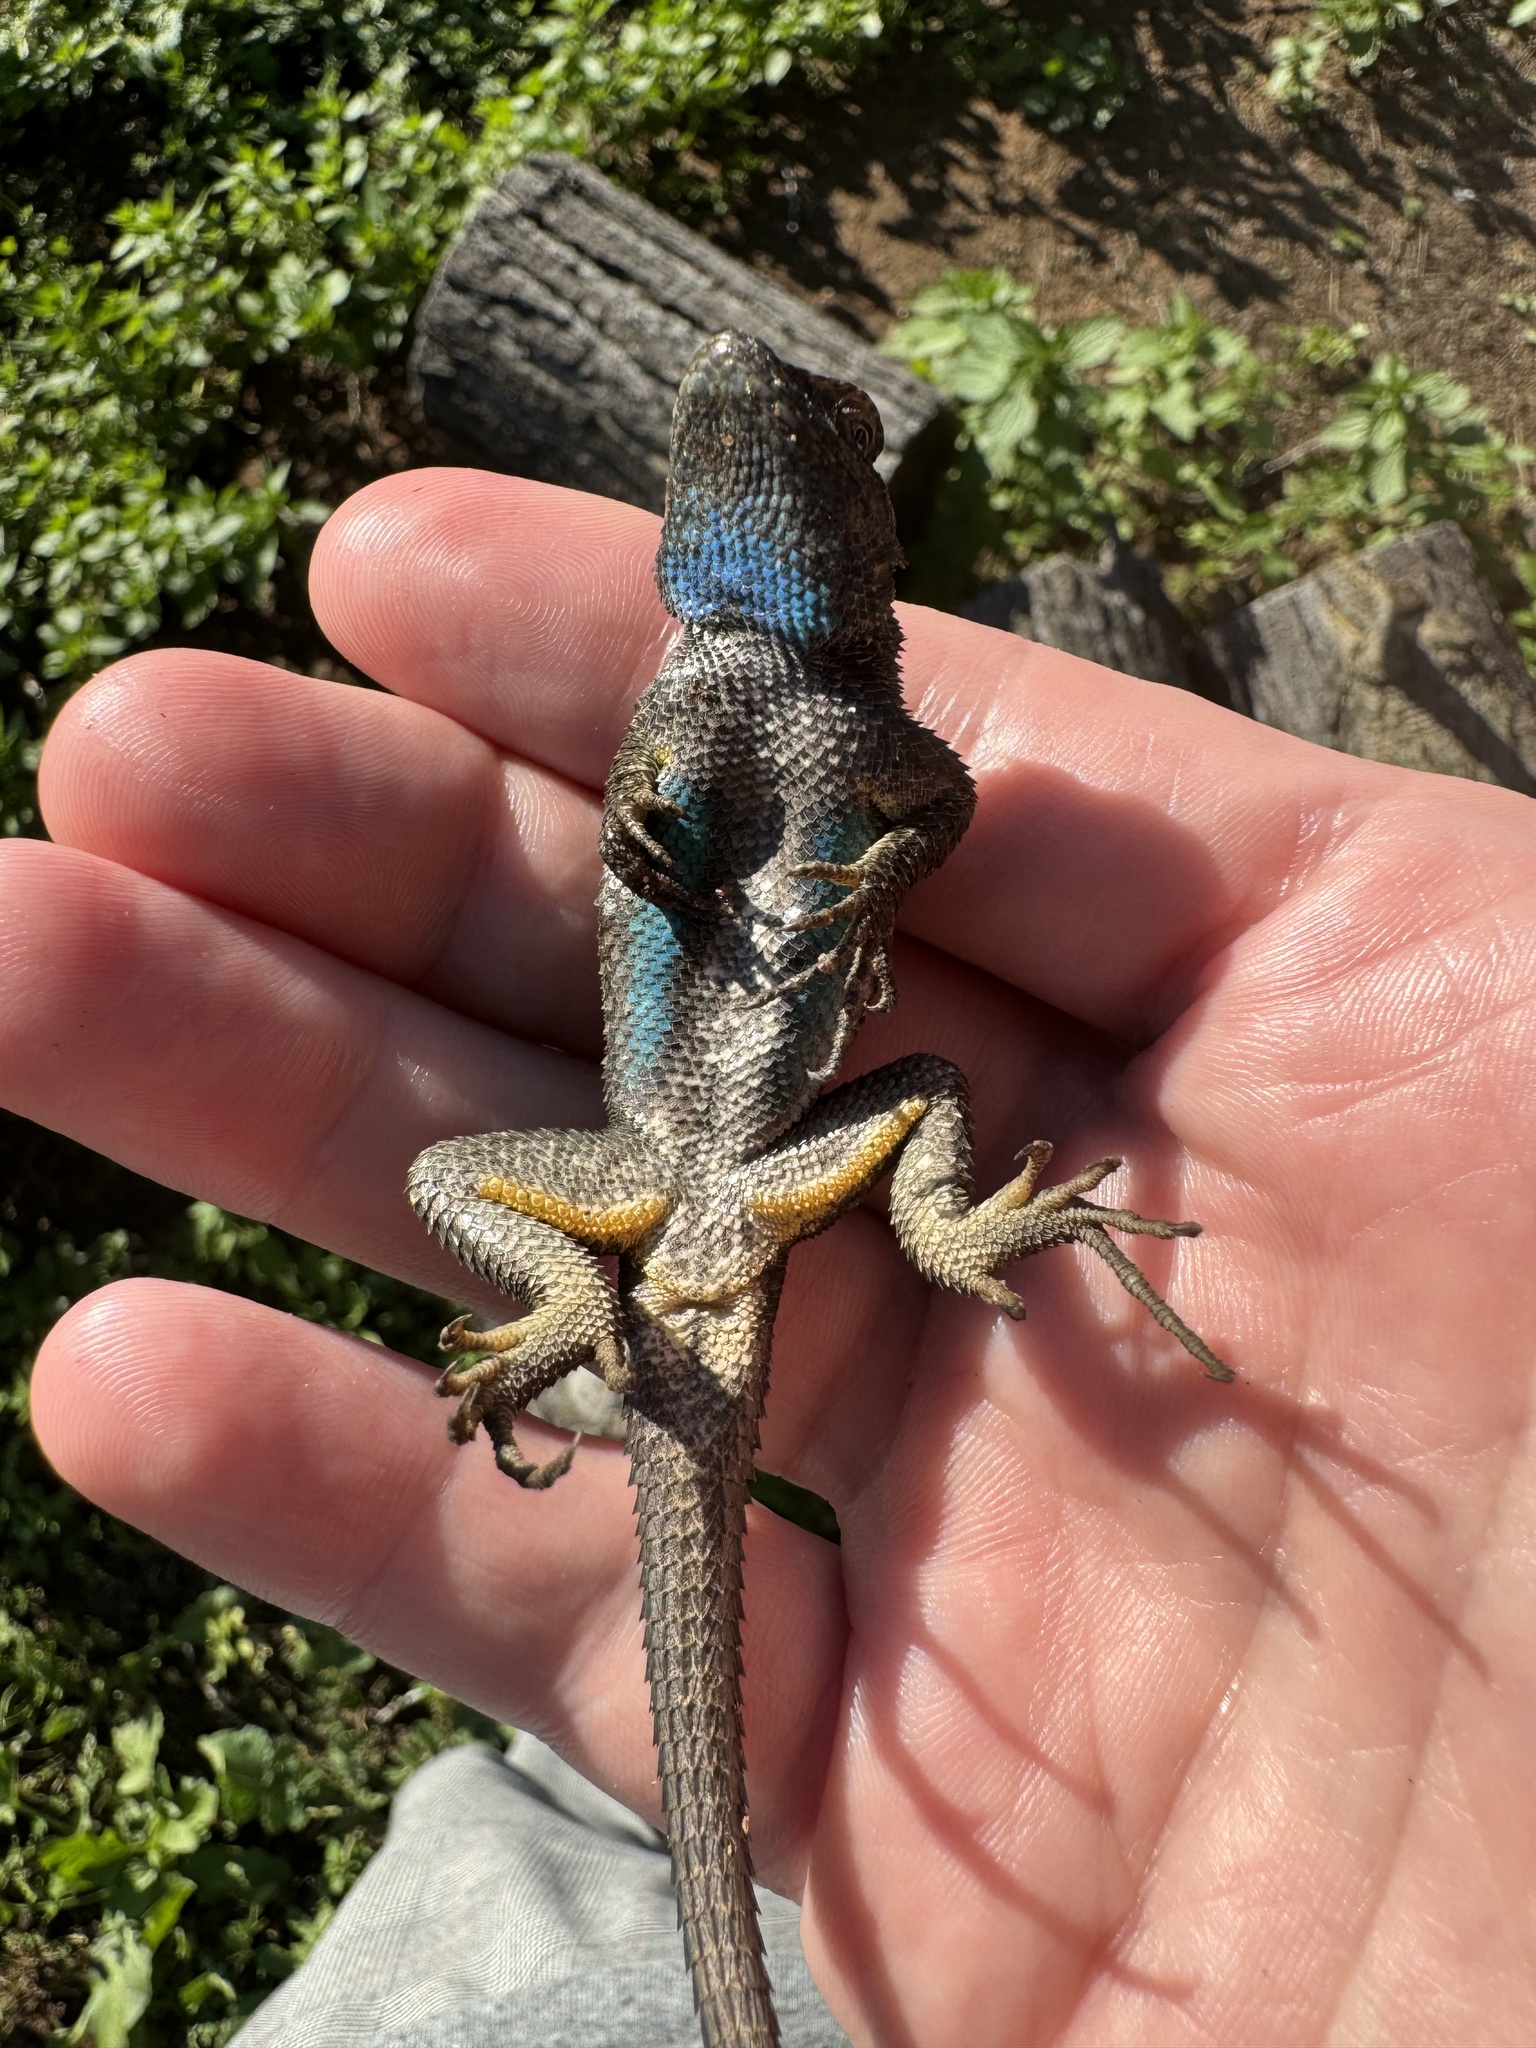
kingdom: Animalia
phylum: Chordata
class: Squamata
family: Phrynosomatidae
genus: Sceloporus
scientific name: Sceloporus occidentalis
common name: Western fence lizard
